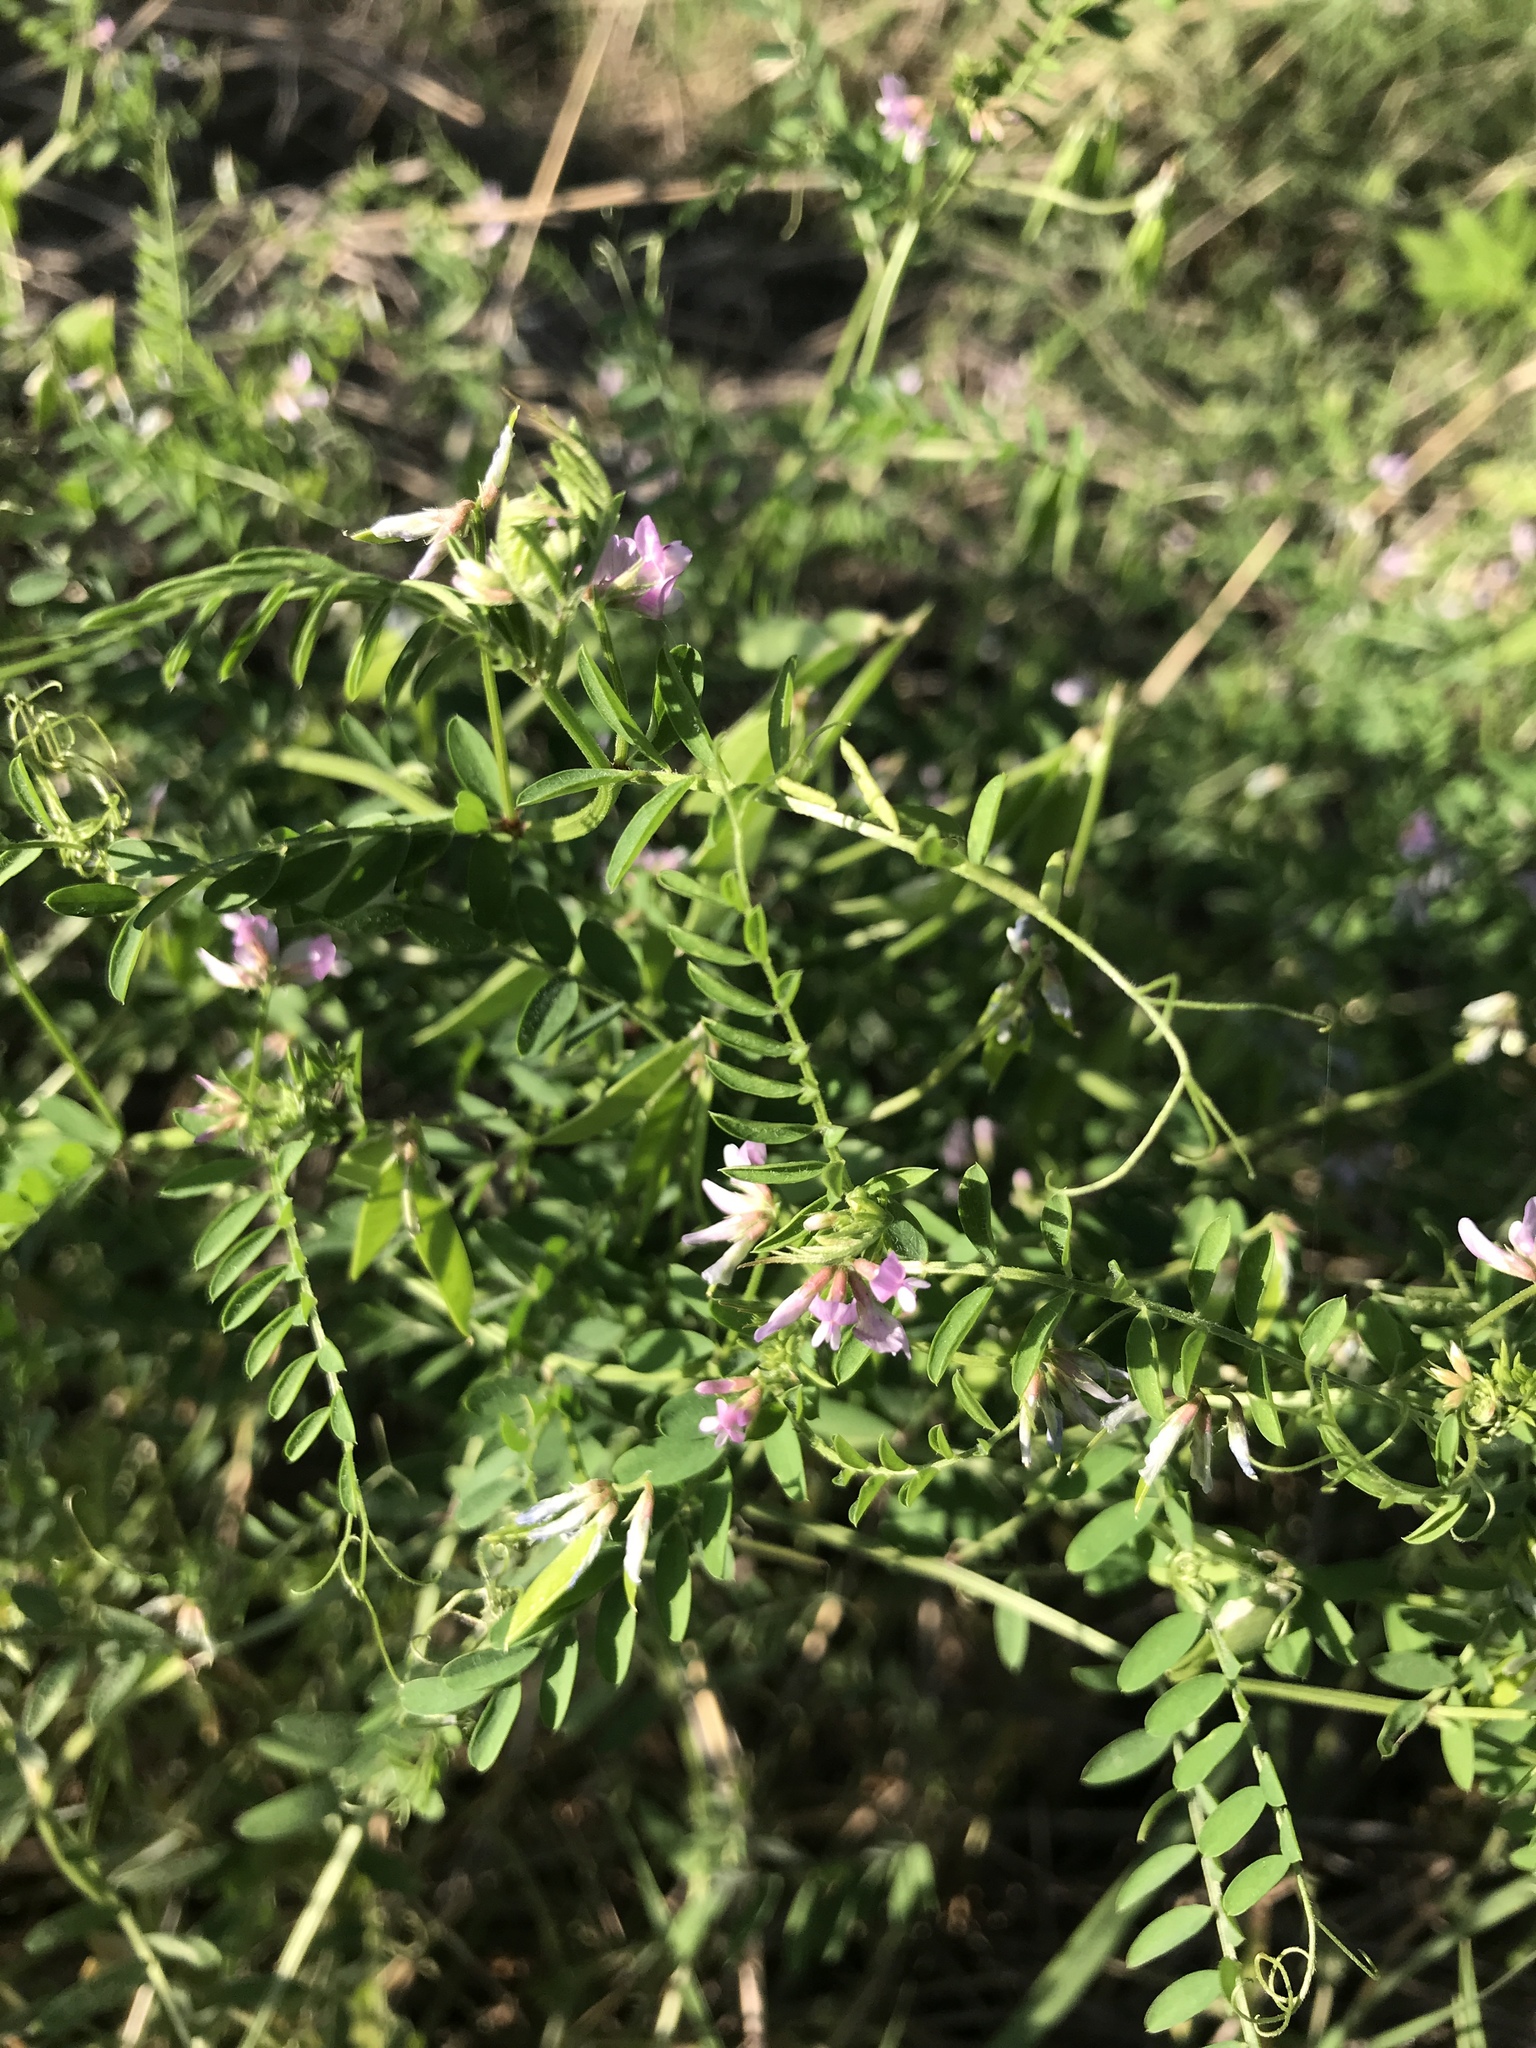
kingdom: Plantae
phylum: Tracheophyta
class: Magnoliopsida
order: Fabales
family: Fabaceae
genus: Vicia
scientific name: Vicia ludoviciana
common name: Louisiana vetch
